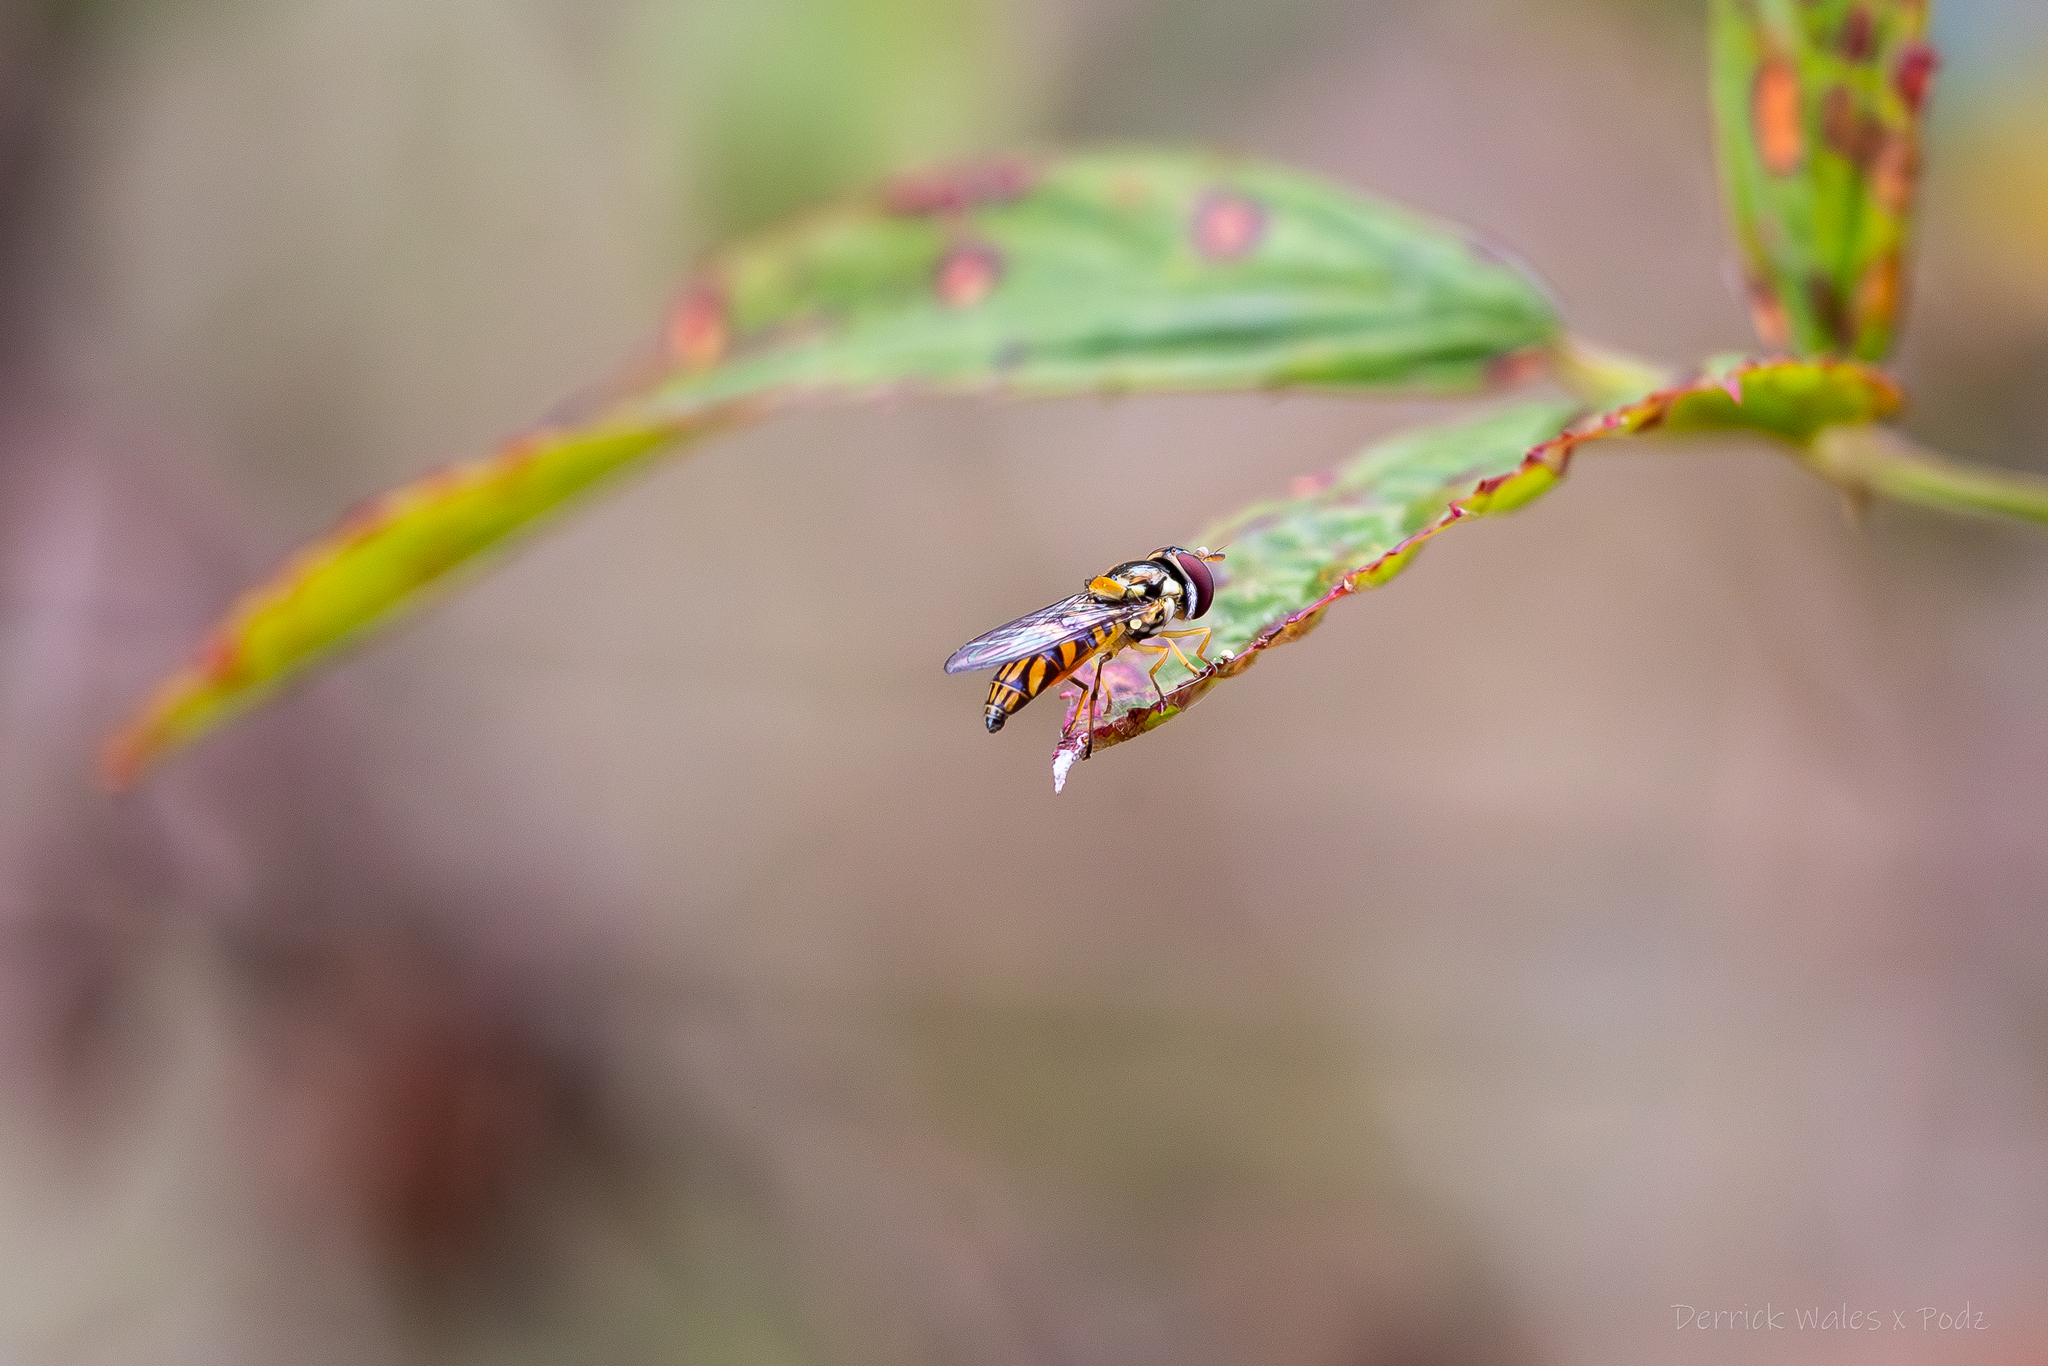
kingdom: Animalia
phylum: Arthropoda
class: Insecta
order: Diptera
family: Syrphidae
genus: Allograpta
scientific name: Allograpta obliqua
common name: Common oblique syrphid
